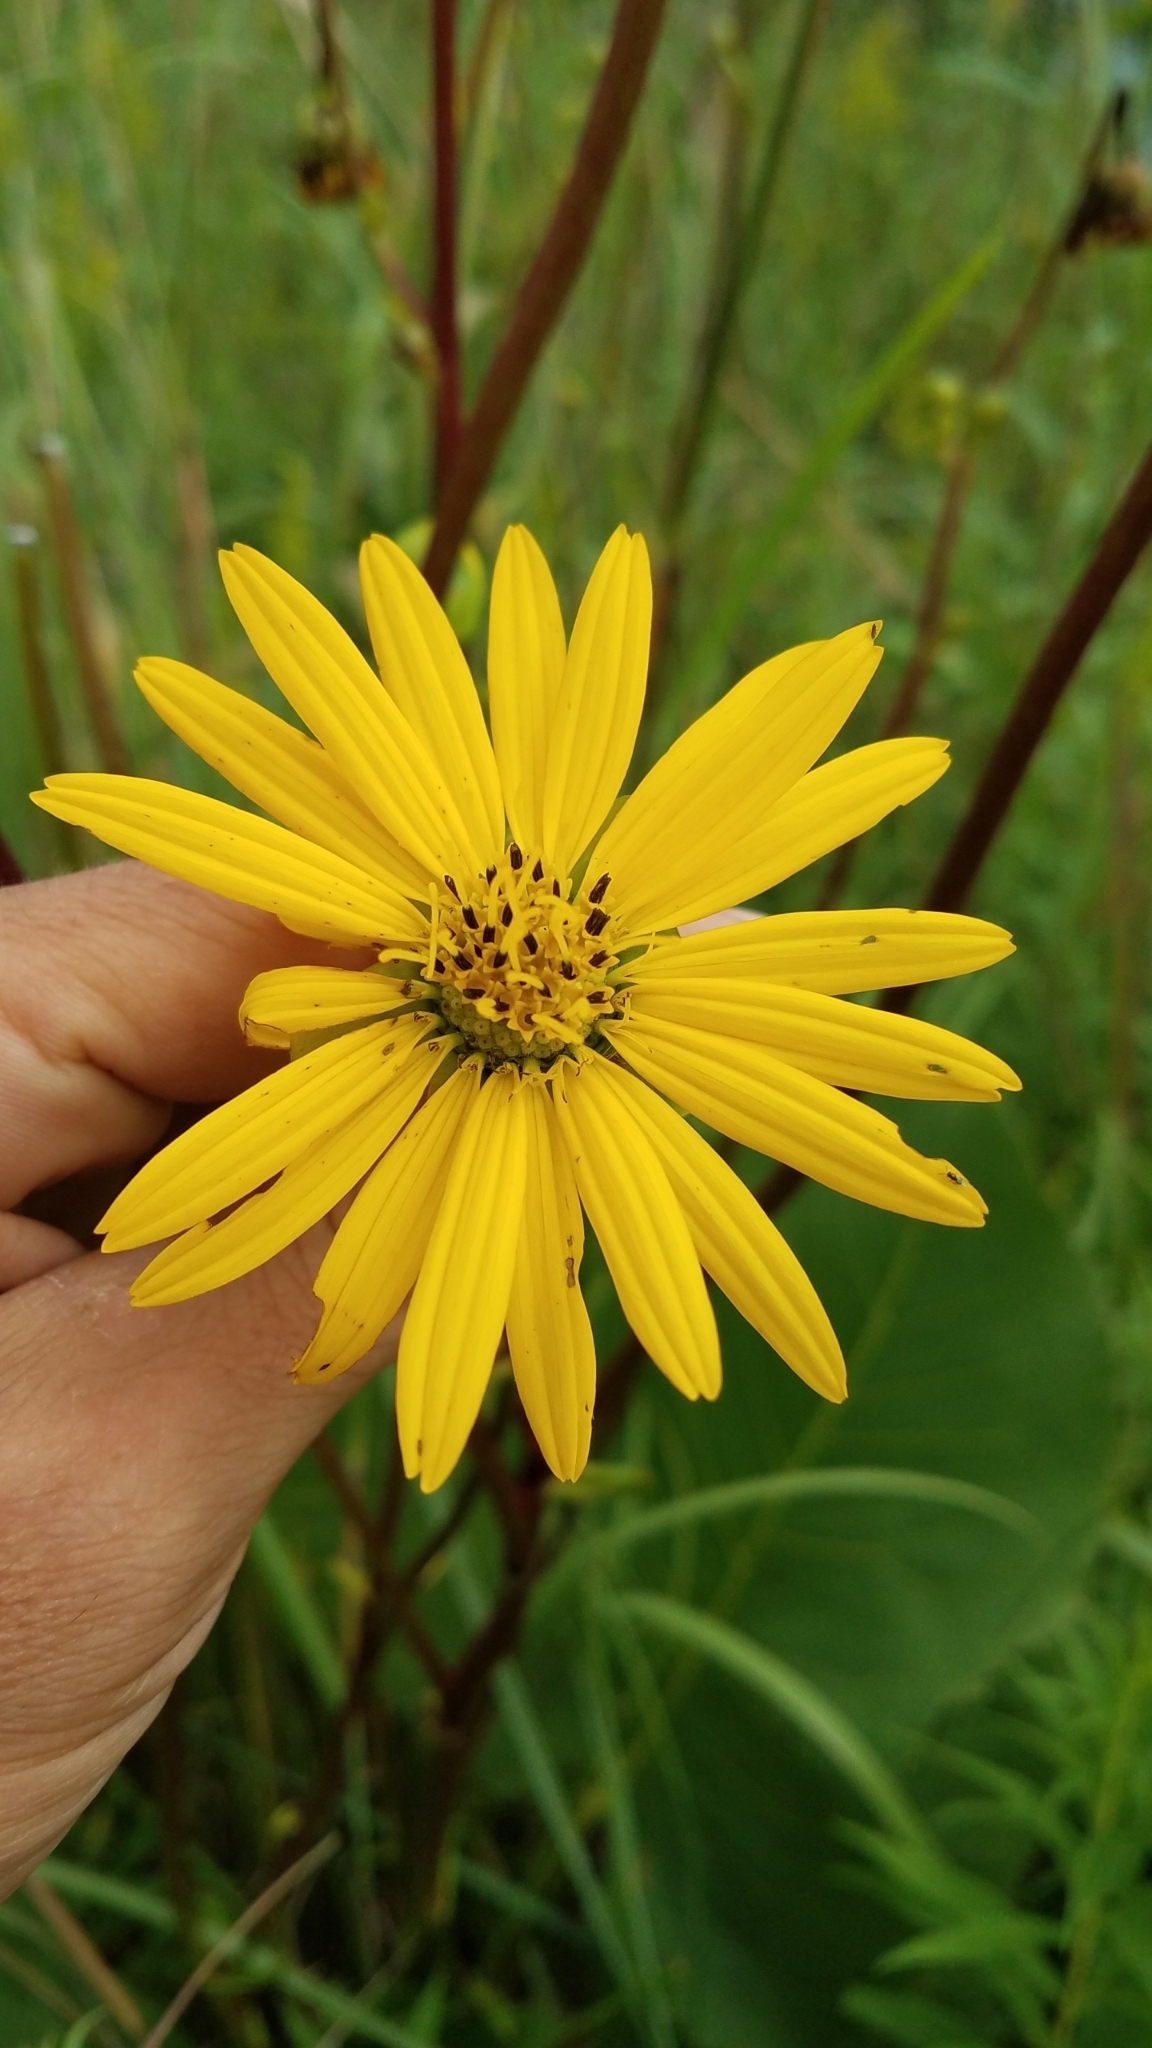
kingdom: Plantae
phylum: Tracheophyta
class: Magnoliopsida
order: Asterales
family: Asteraceae
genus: Silphium
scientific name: Silphium terebinthinaceum
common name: Basal-leaf rosinweed
